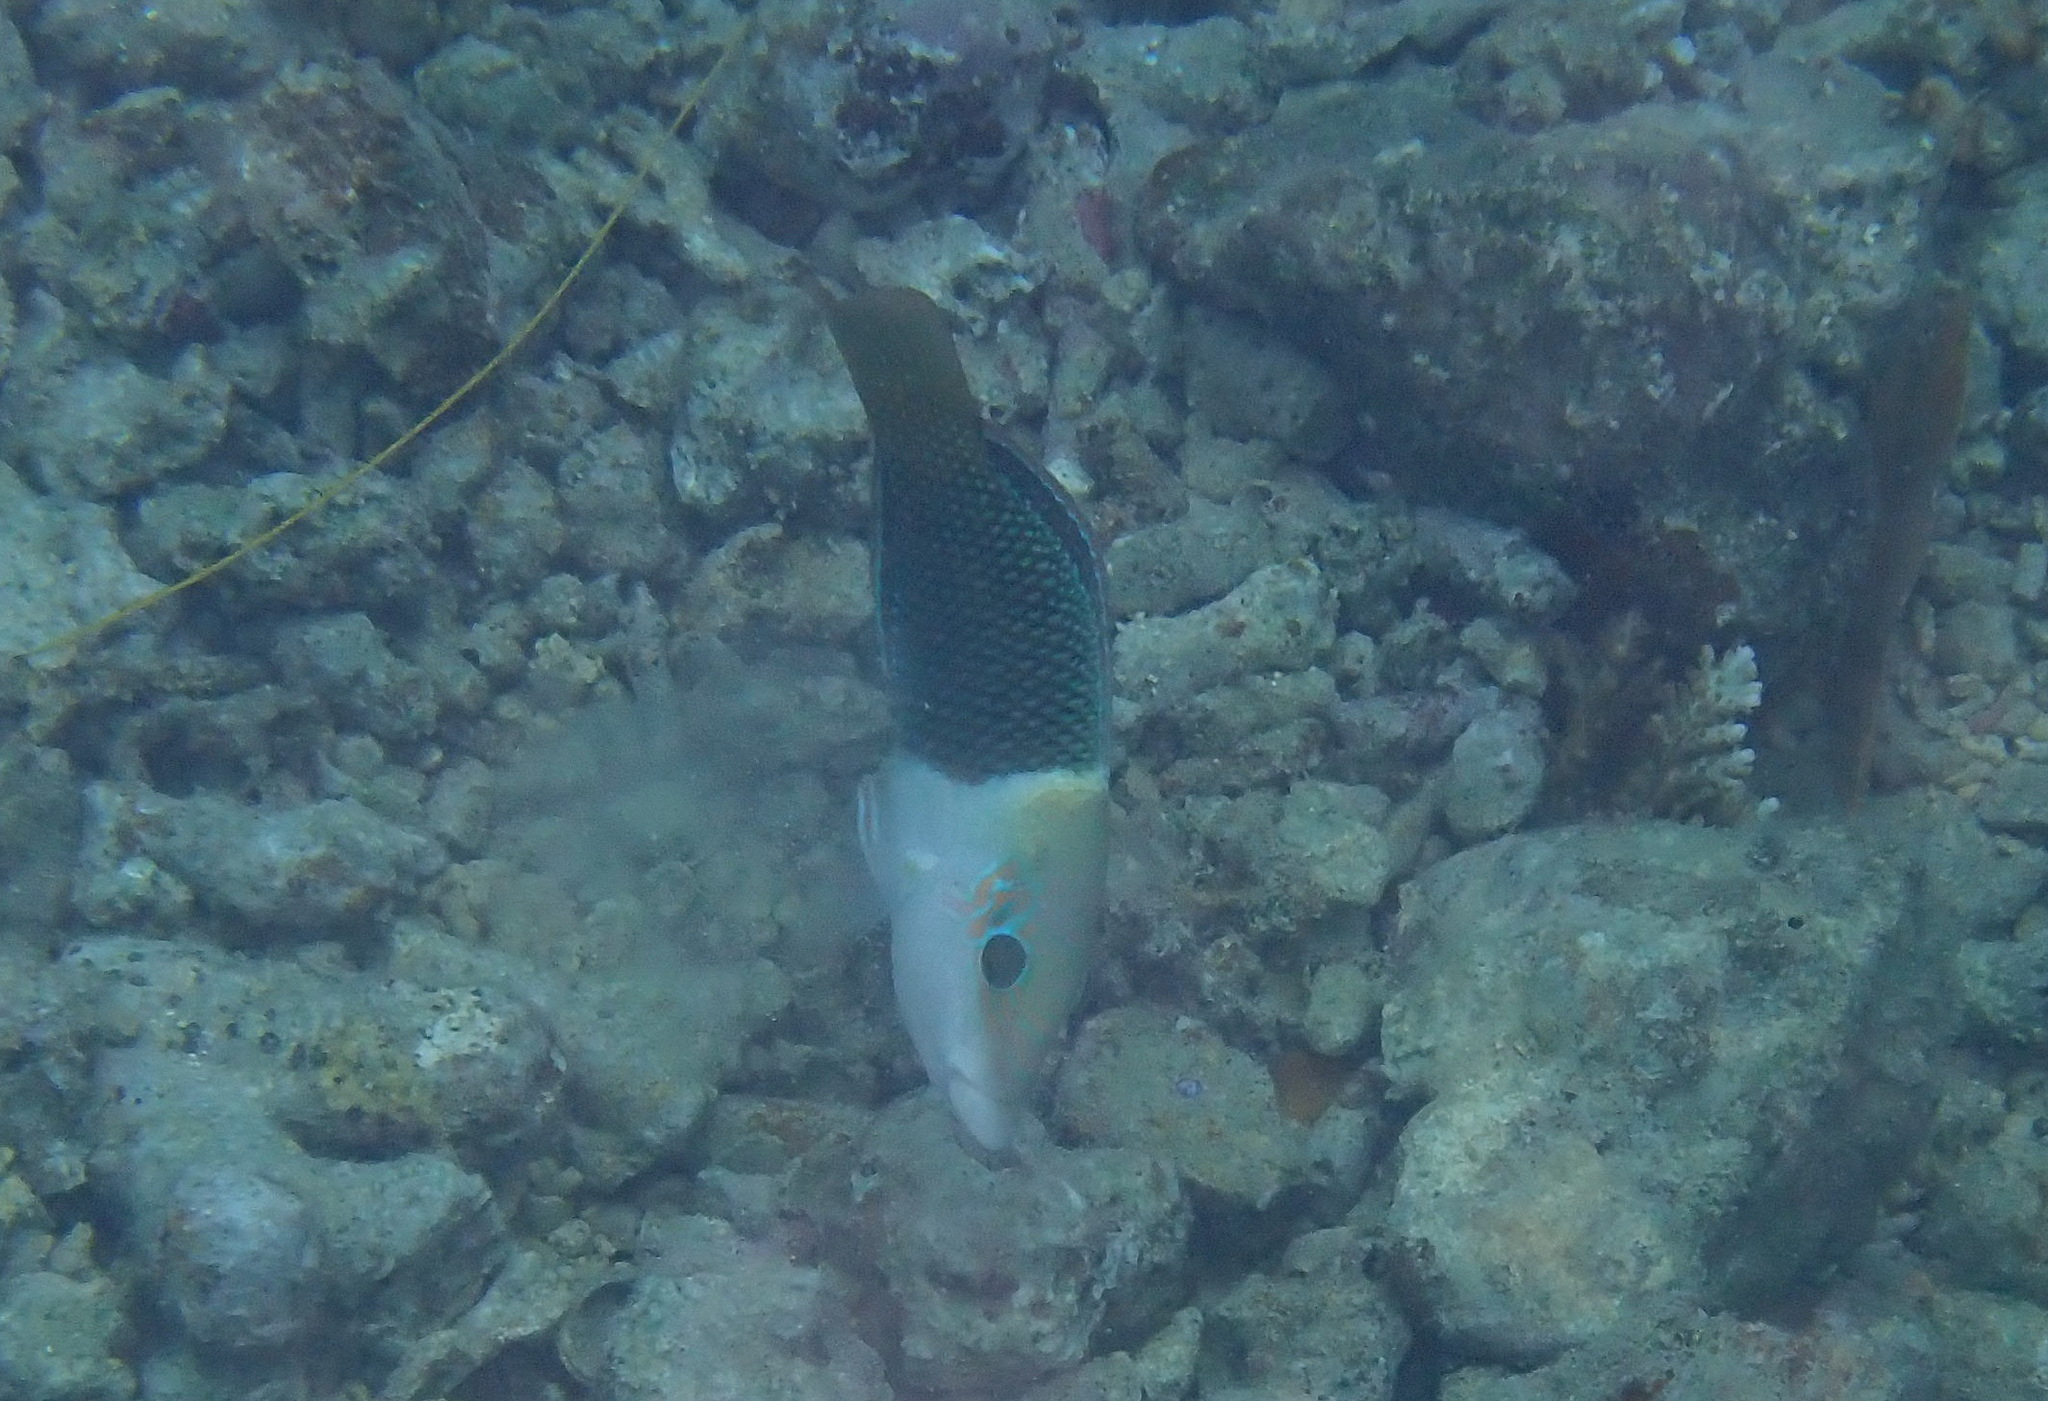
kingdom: Animalia
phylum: Chordata
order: Perciformes
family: Labridae
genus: Hemigymnus
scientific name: Hemigymnus melapterus
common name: Blackeye thicklip
